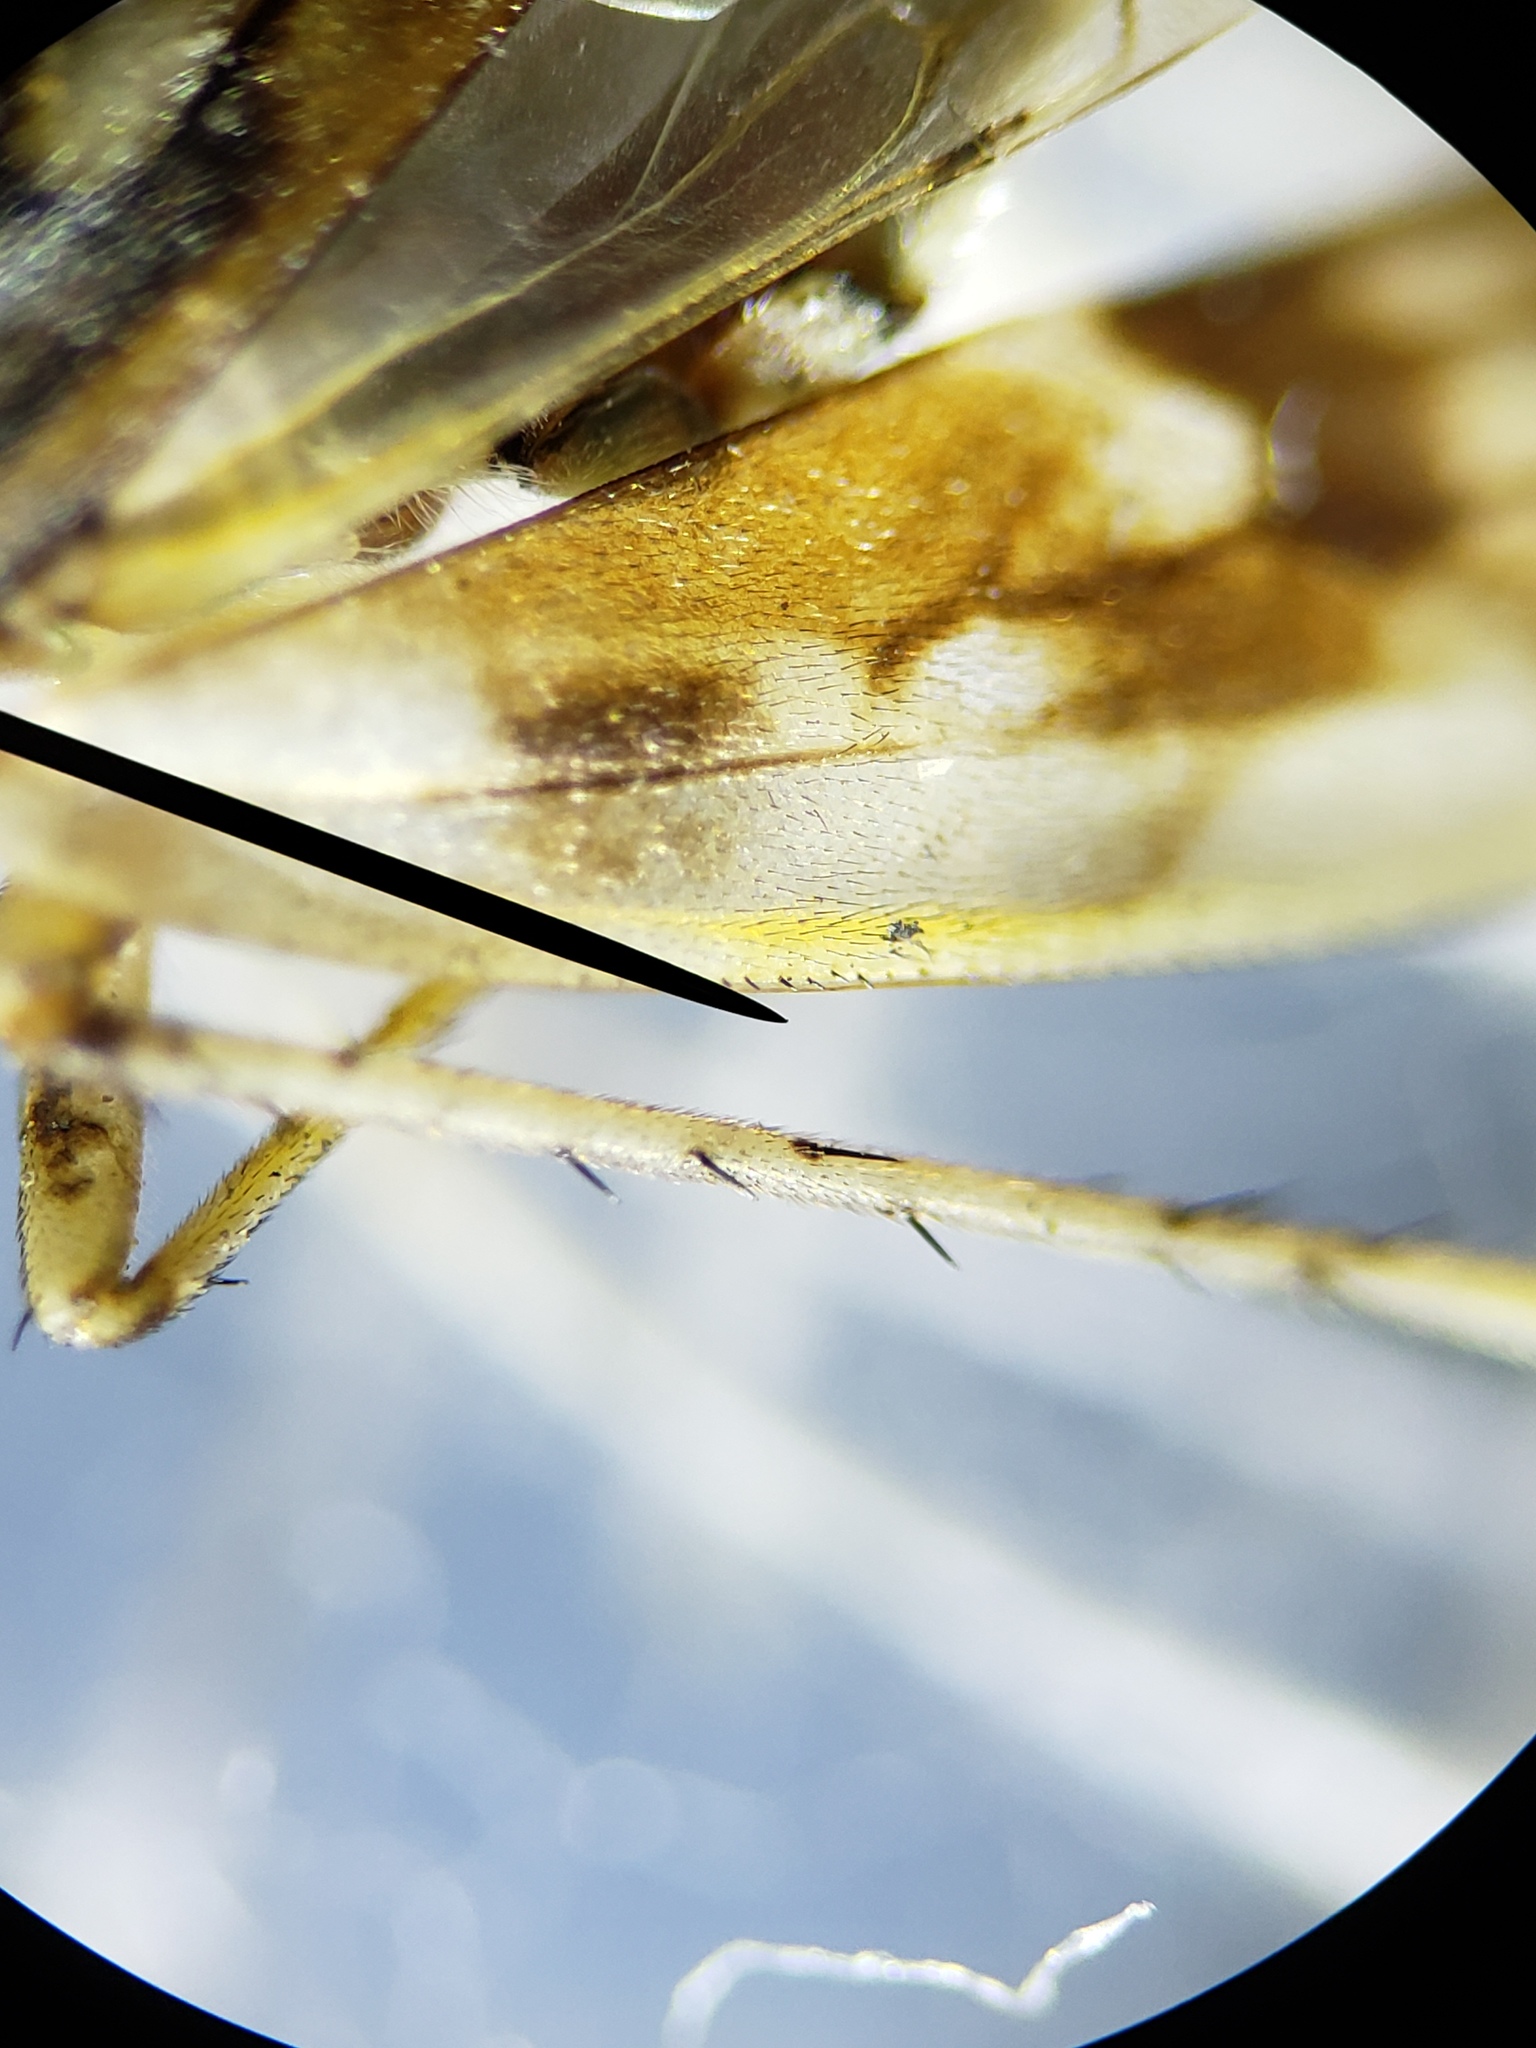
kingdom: Animalia
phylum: Arthropoda
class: Insecta
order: Hemiptera
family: Saldidae
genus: Pentacora
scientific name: Pentacora signoreti
